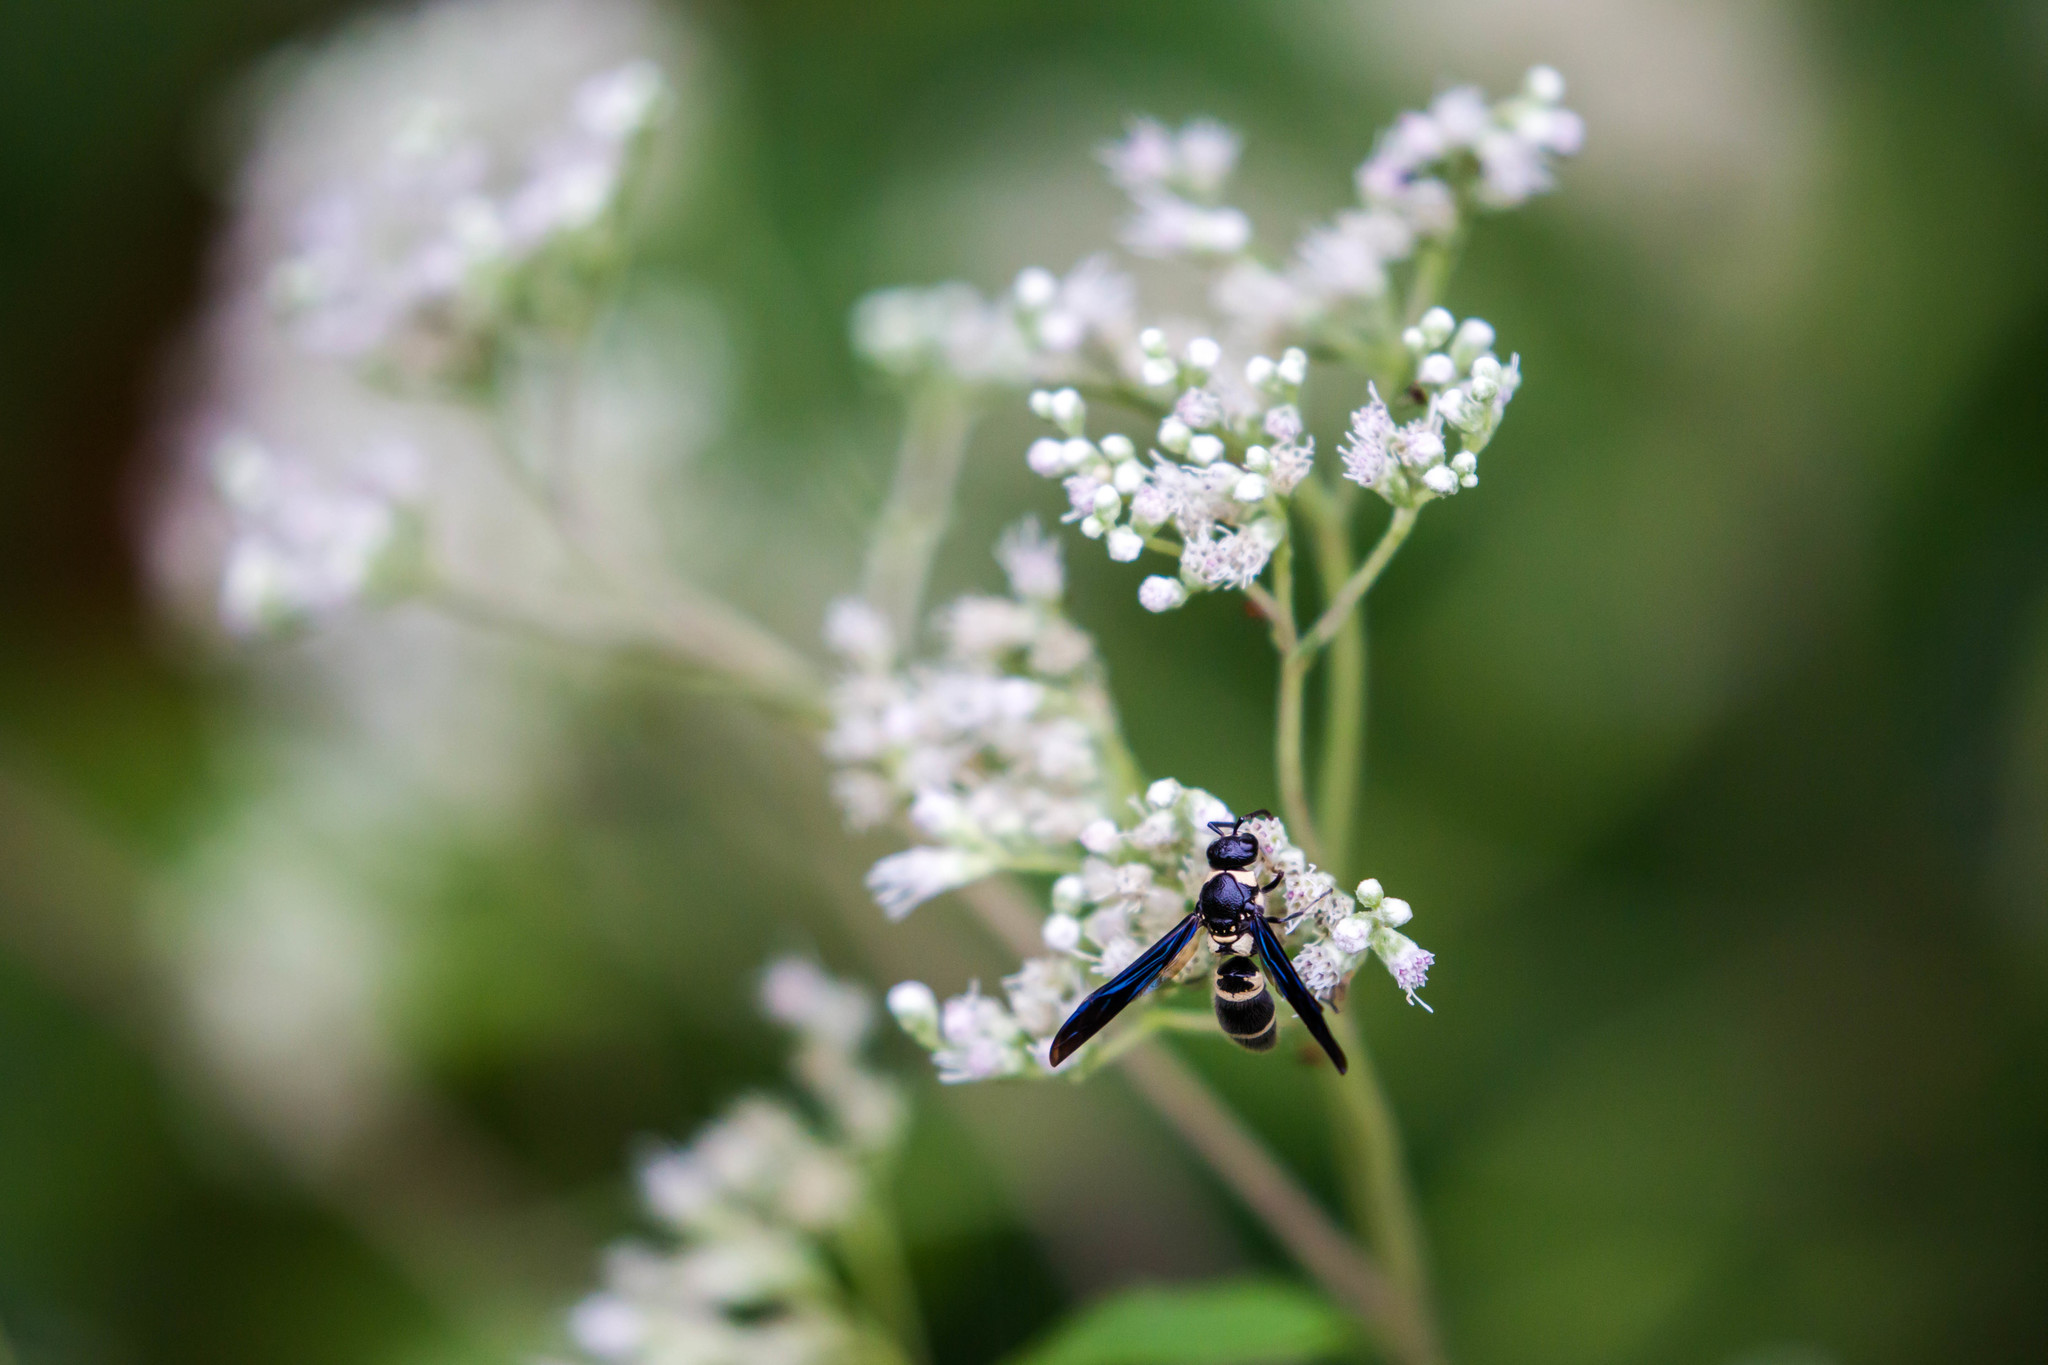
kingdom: Animalia
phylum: Arthropoda
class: Insecta
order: Hymenoptera
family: Eumenidae
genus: Pseudodynerus
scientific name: Pseudodynerus quadrisectus
